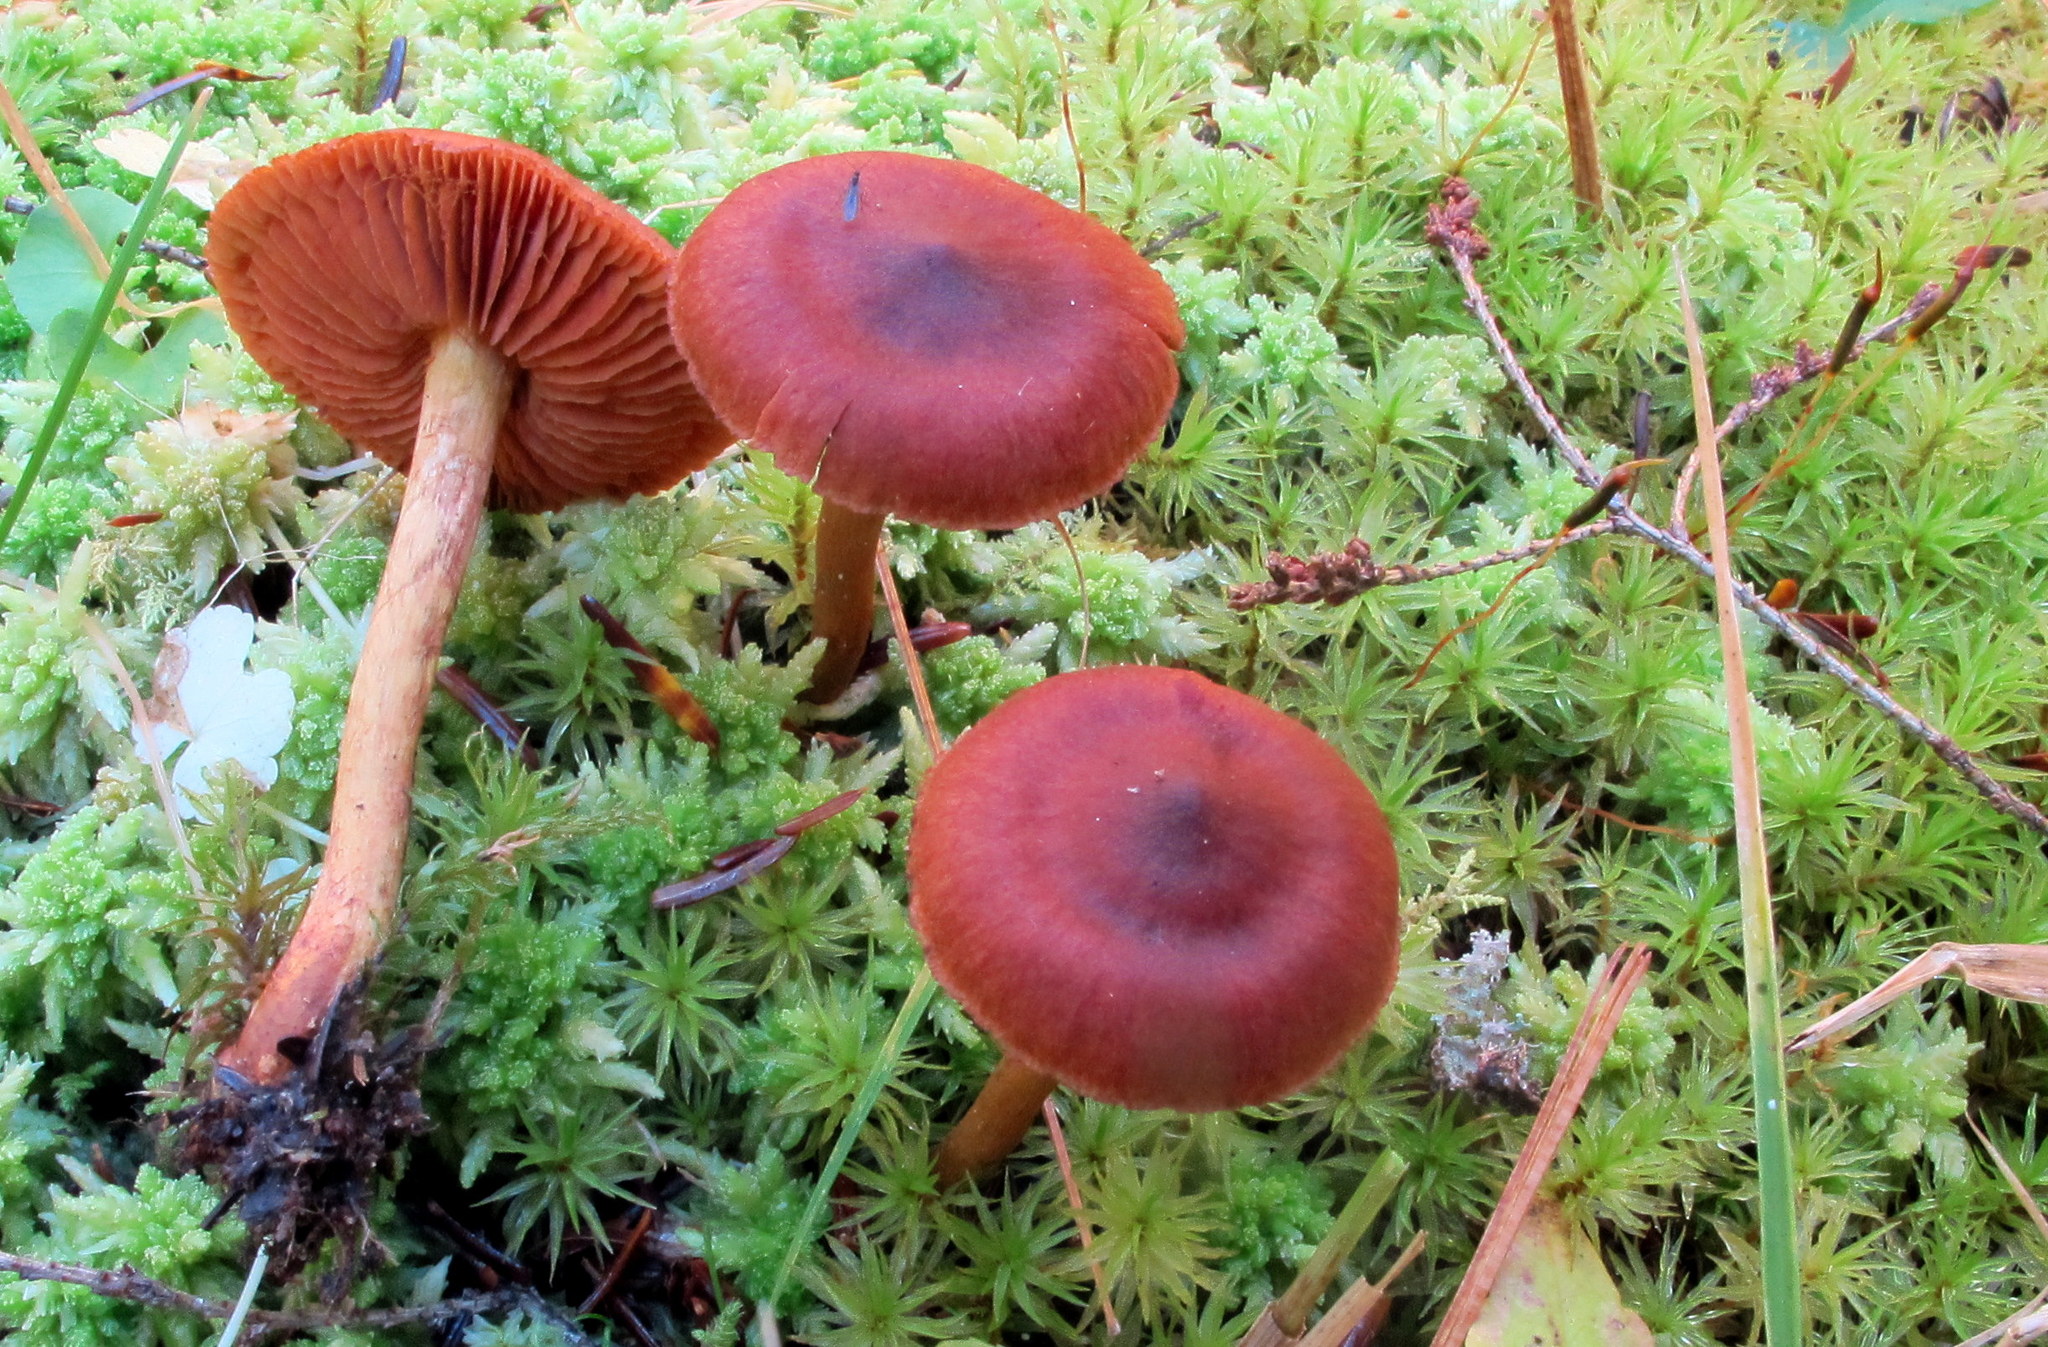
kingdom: Fungi
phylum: Basidiomycota
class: Agaricomycetes
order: Agaricales
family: Cortinariaceae
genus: Cortinarius
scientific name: Cortinarius purpureus
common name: Imperial webcap
